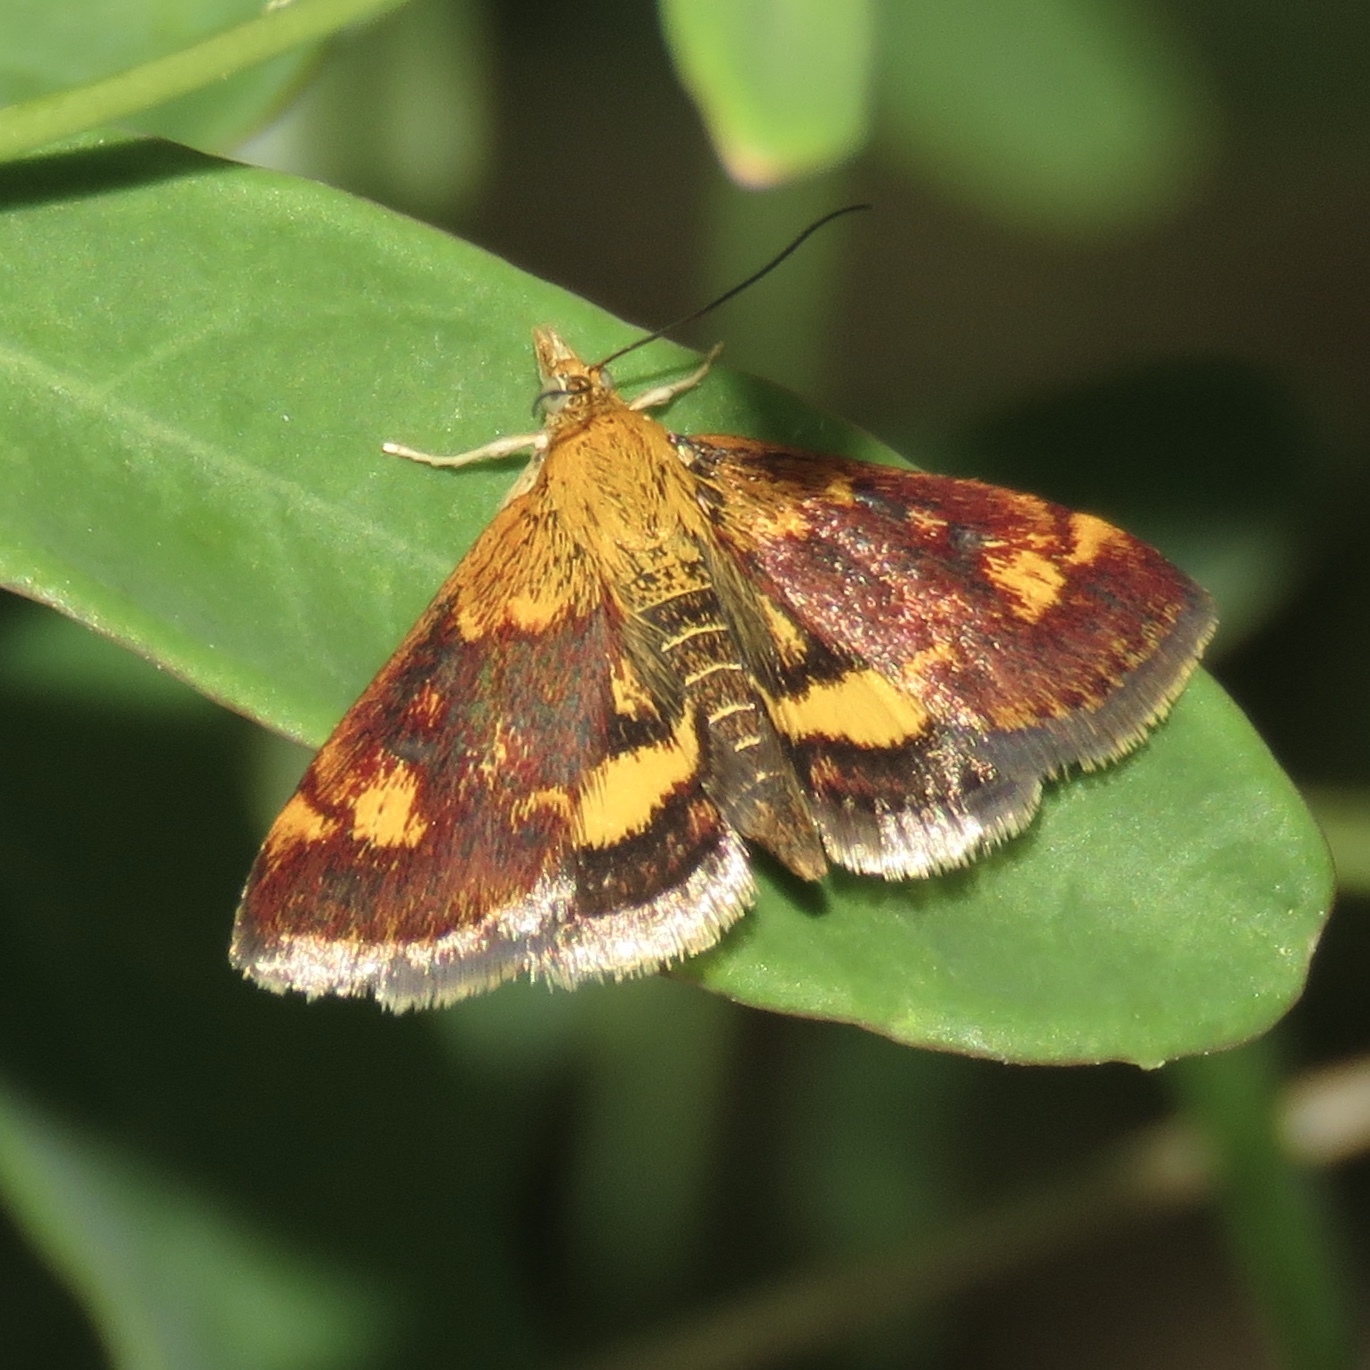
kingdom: Animalia
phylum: Arthropoda
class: Insecta
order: Lepidoptera
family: Crambidae
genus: Pyrausta
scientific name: Pyrausta orphisalis
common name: Orange mint moth
